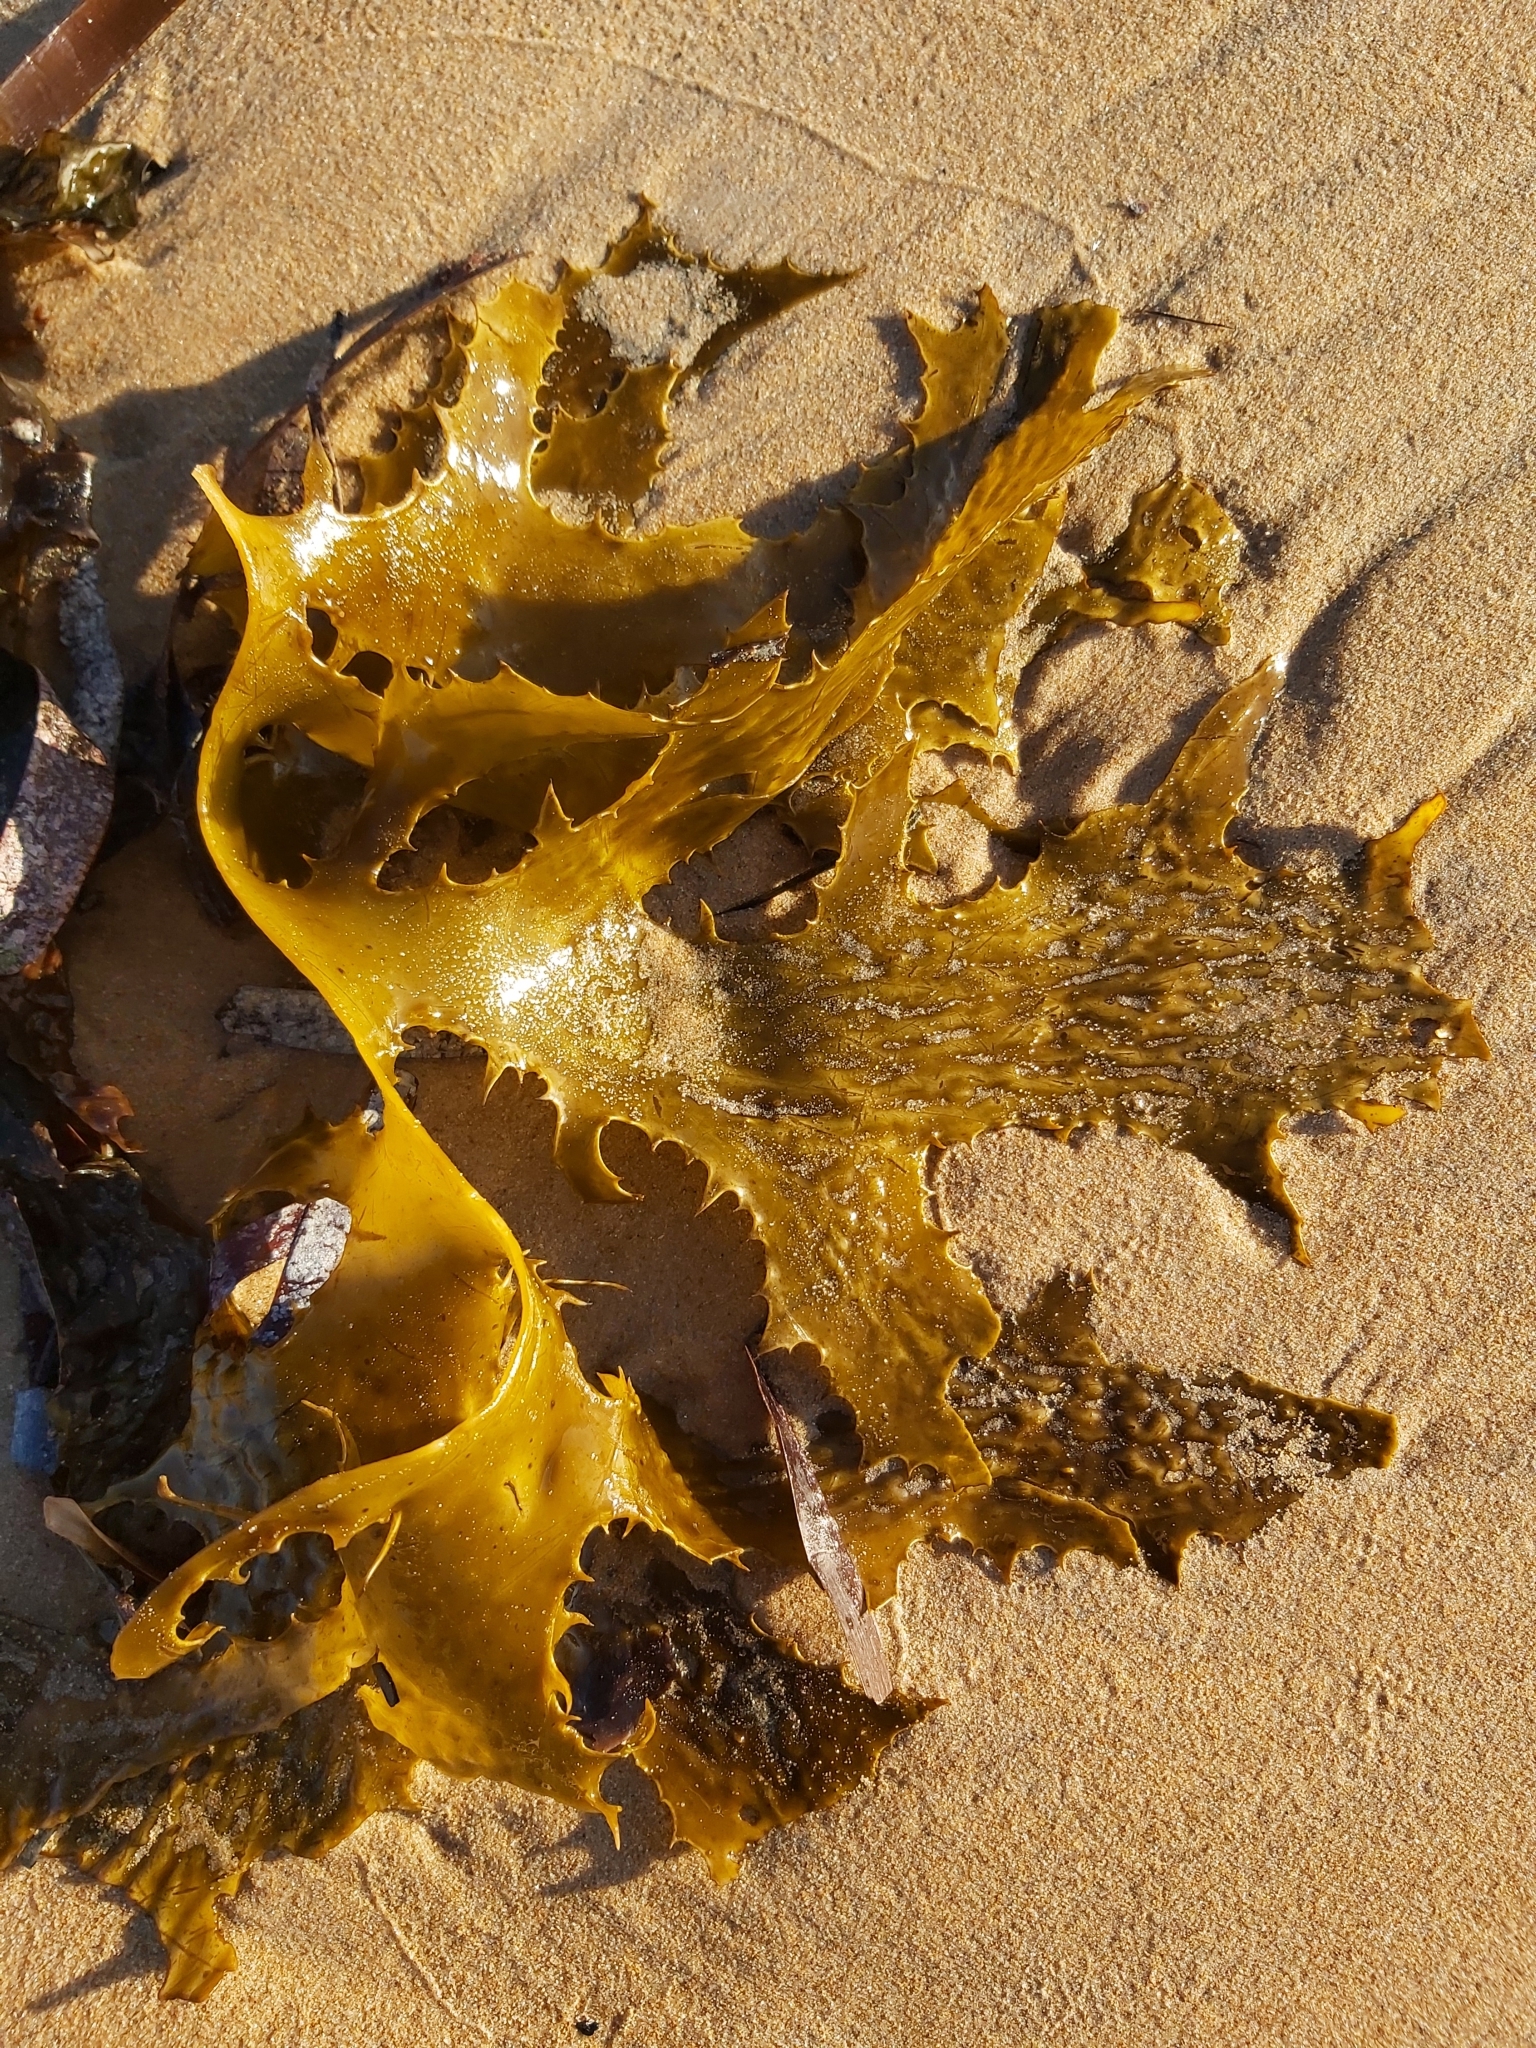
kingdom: Chromista
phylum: Ochrophyta
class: Phaeophyceae
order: Laminariales
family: Lessoniaceae
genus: Ecklonia
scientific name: Ecklonia radiata
